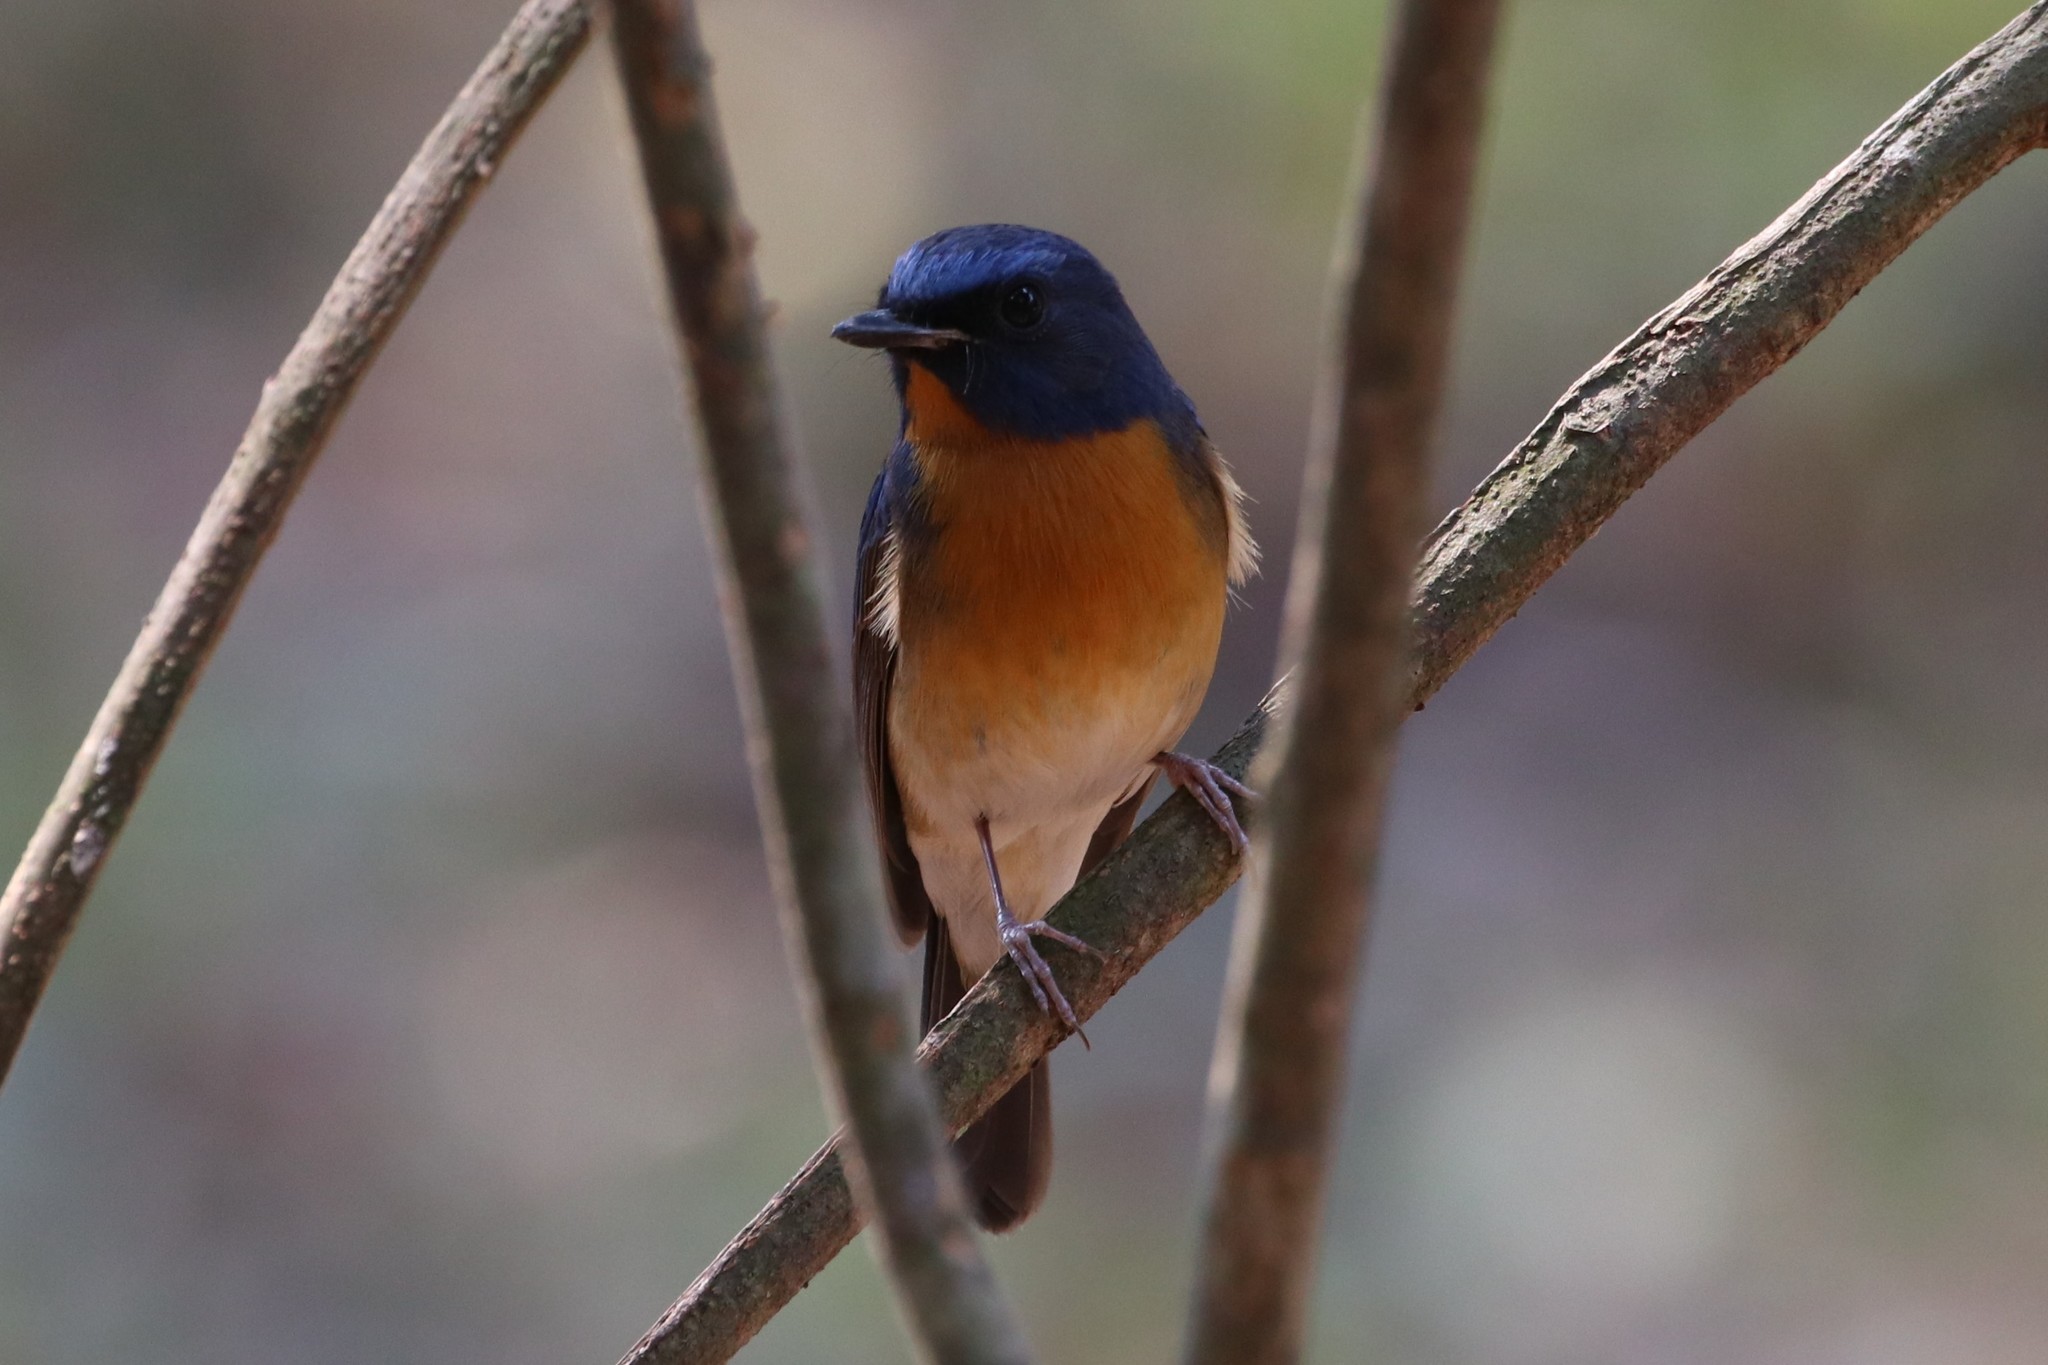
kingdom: Animalia
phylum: Chordata
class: Aves
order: Passeriformes
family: Muscicapidae
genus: Cyornis
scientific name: Cyornis glaucicomans
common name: Chinese blue flycatcher
